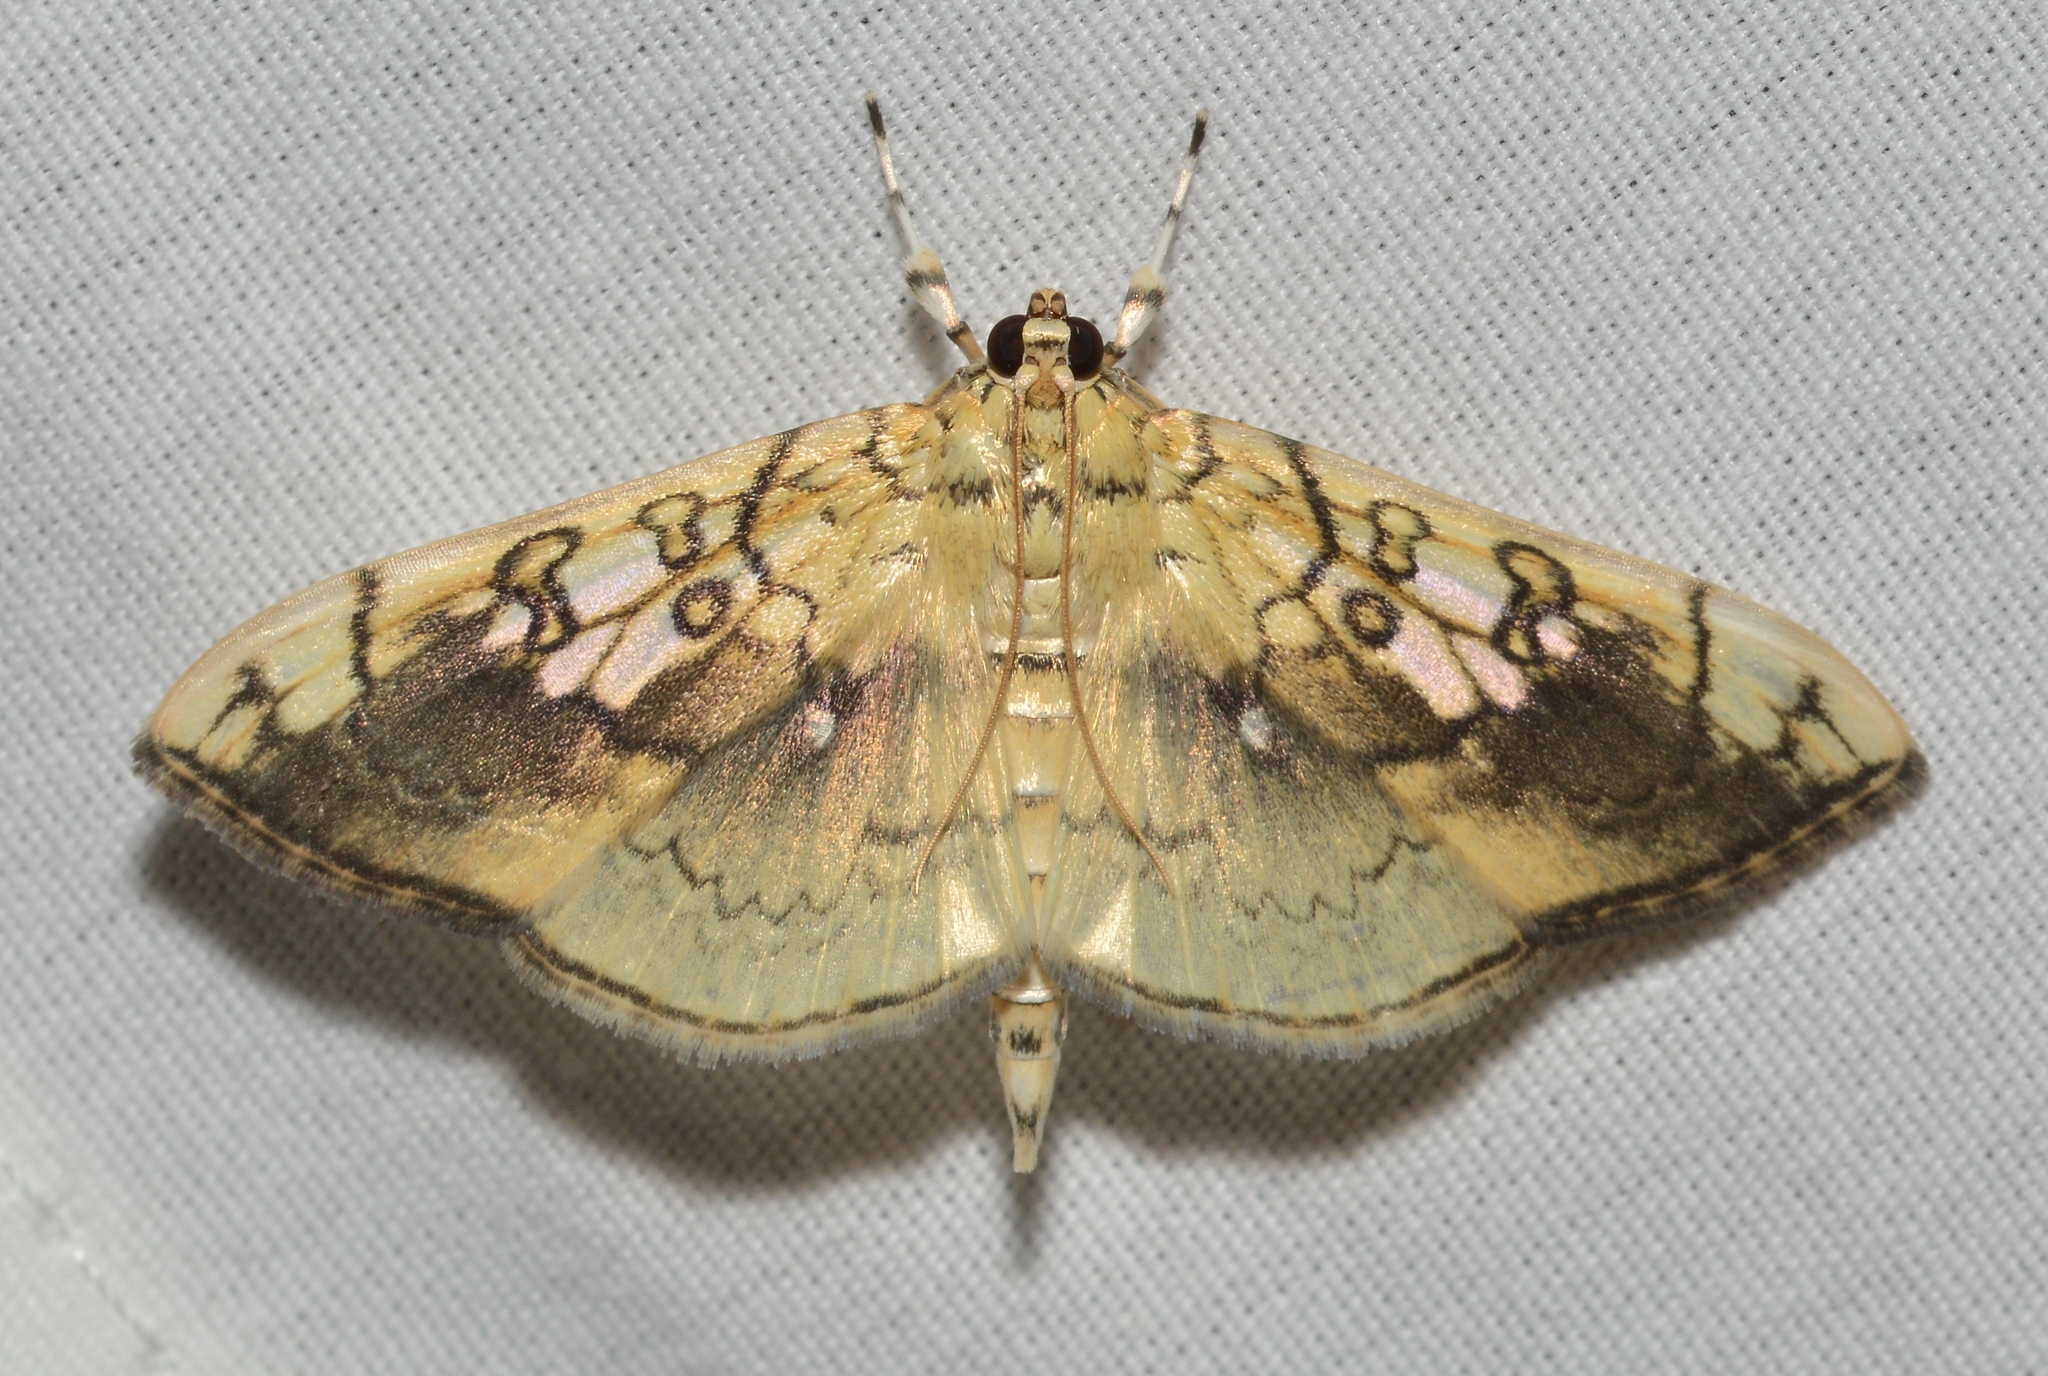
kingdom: Animalia
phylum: Arthropoda
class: Insecta
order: Lepidoptera
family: Crambidae
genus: Pantographa
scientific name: Pantographa limata
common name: Basswood leafroller moth
